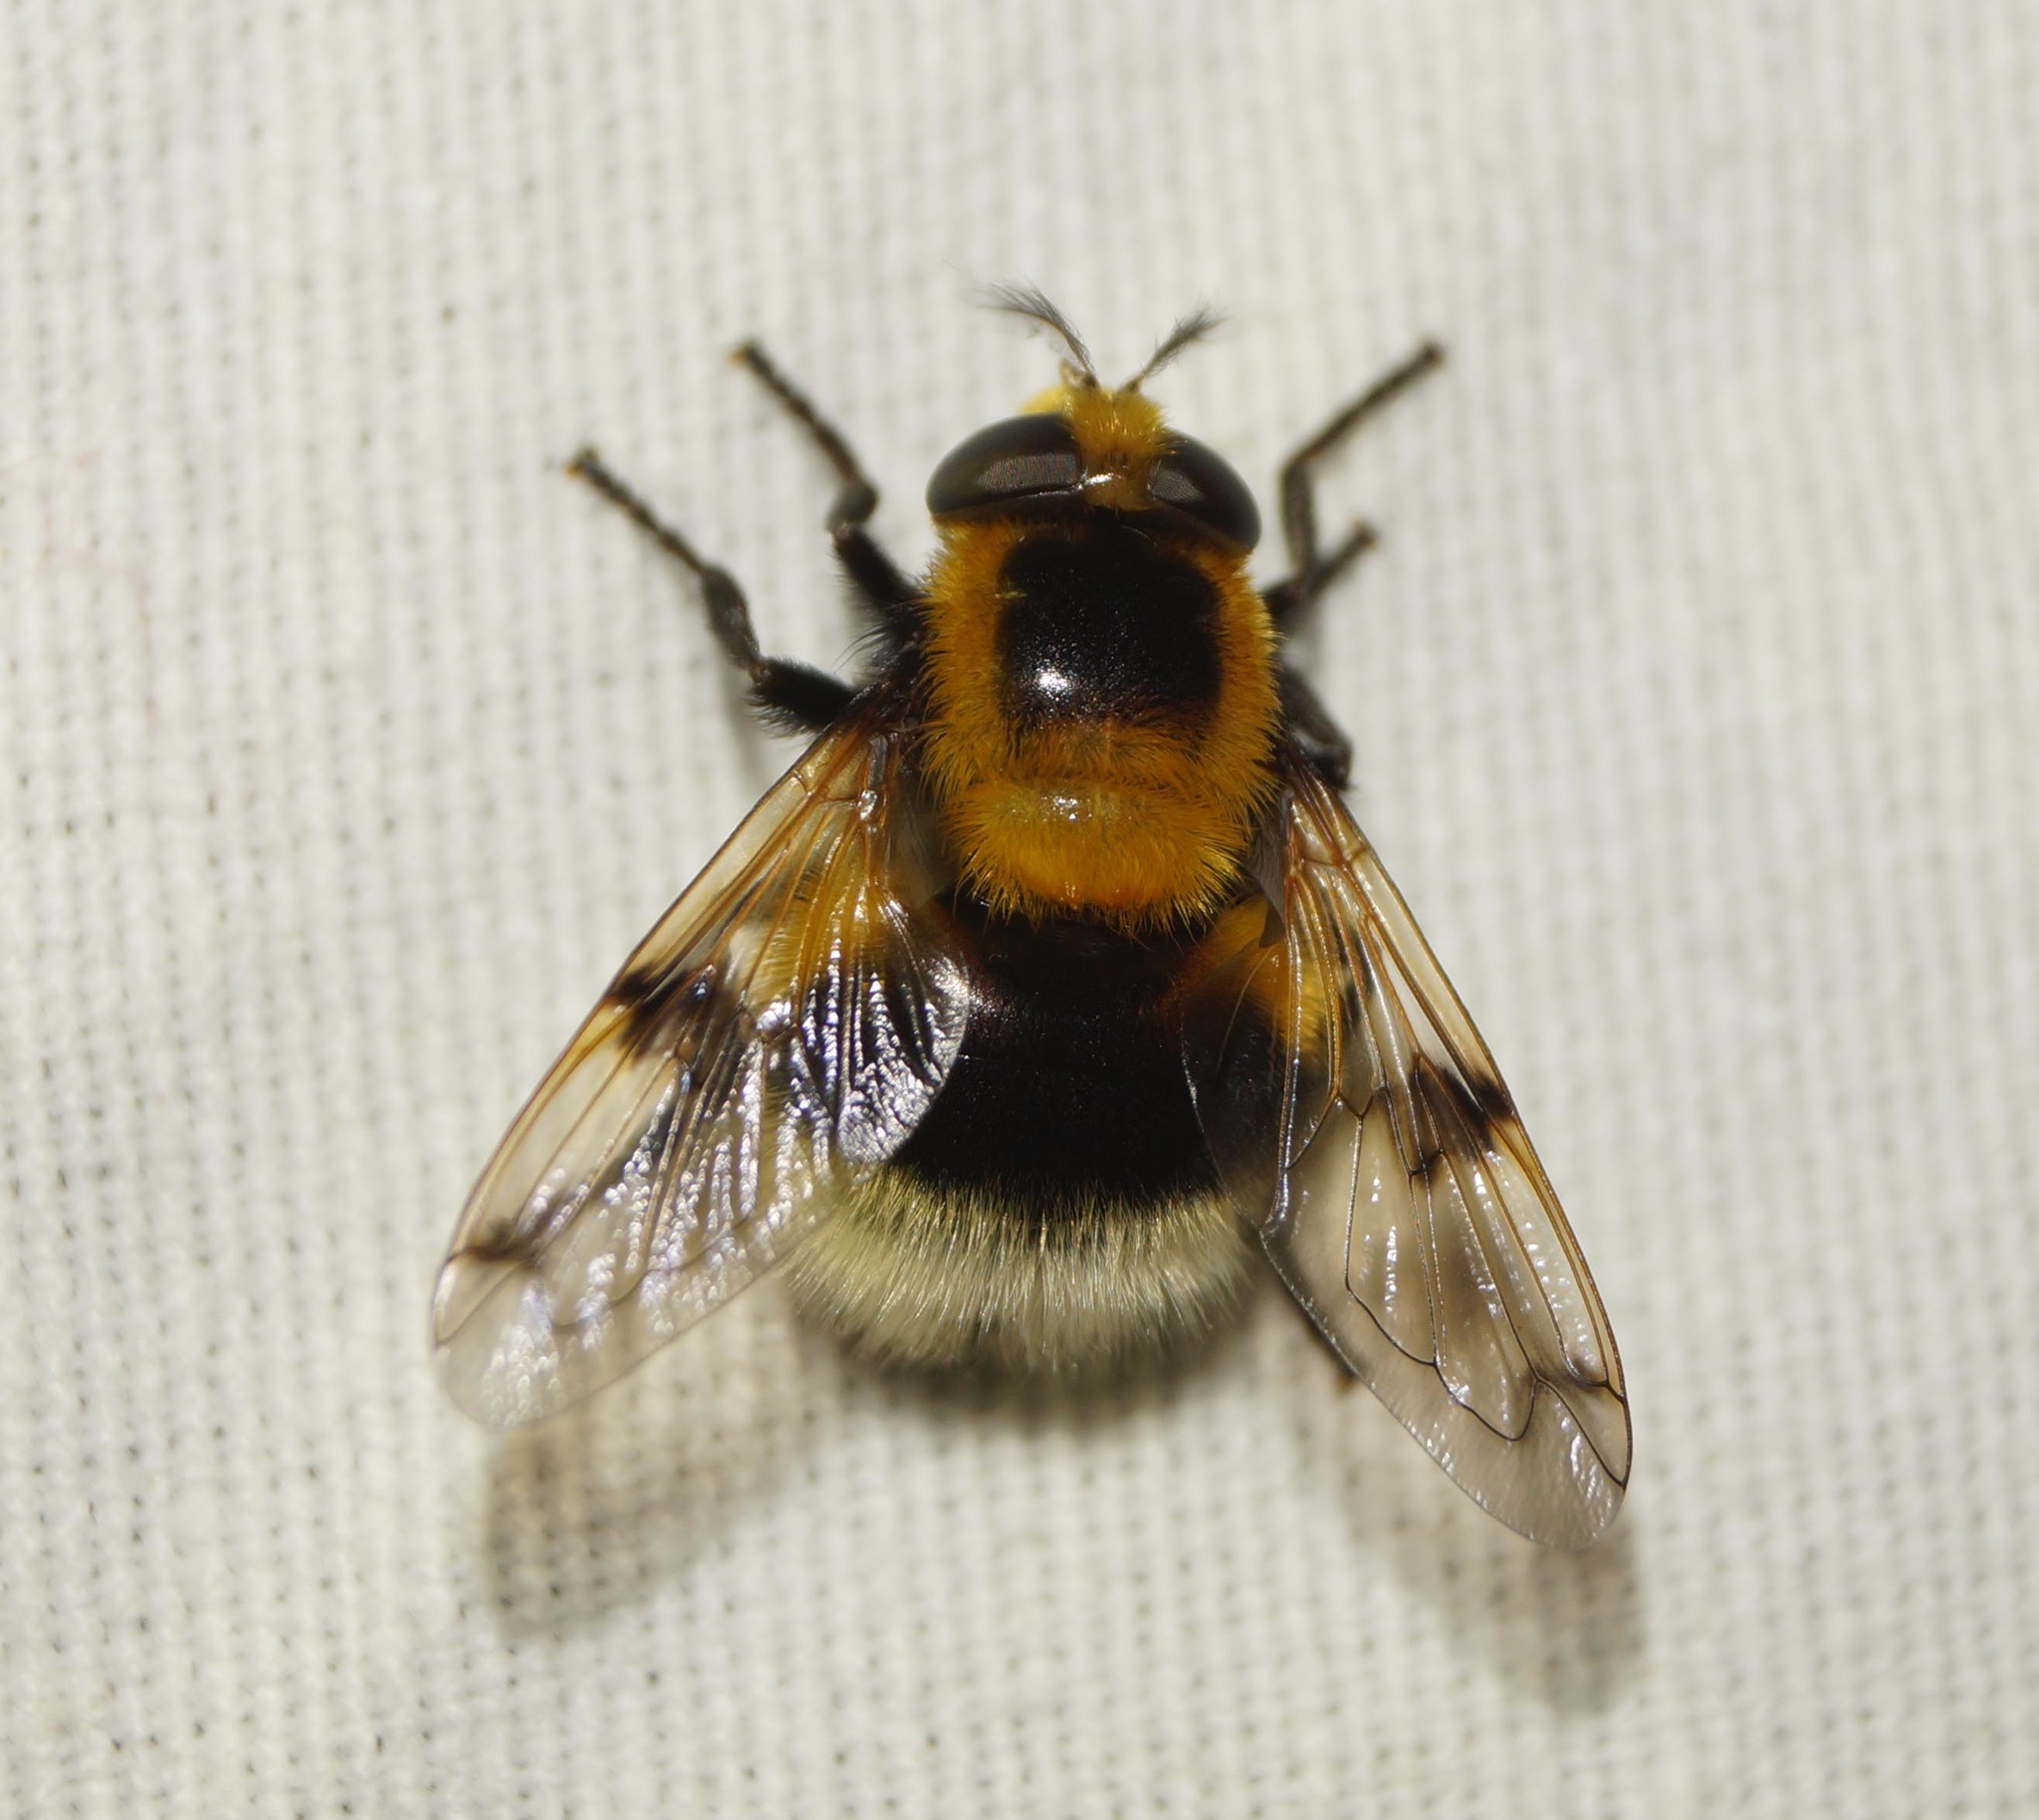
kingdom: Animalia
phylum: Arthropoda
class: Insecta
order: Diptera
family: Syrphidae
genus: Volucella
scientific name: Volucella bombylans
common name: Bumble bee hover fly
